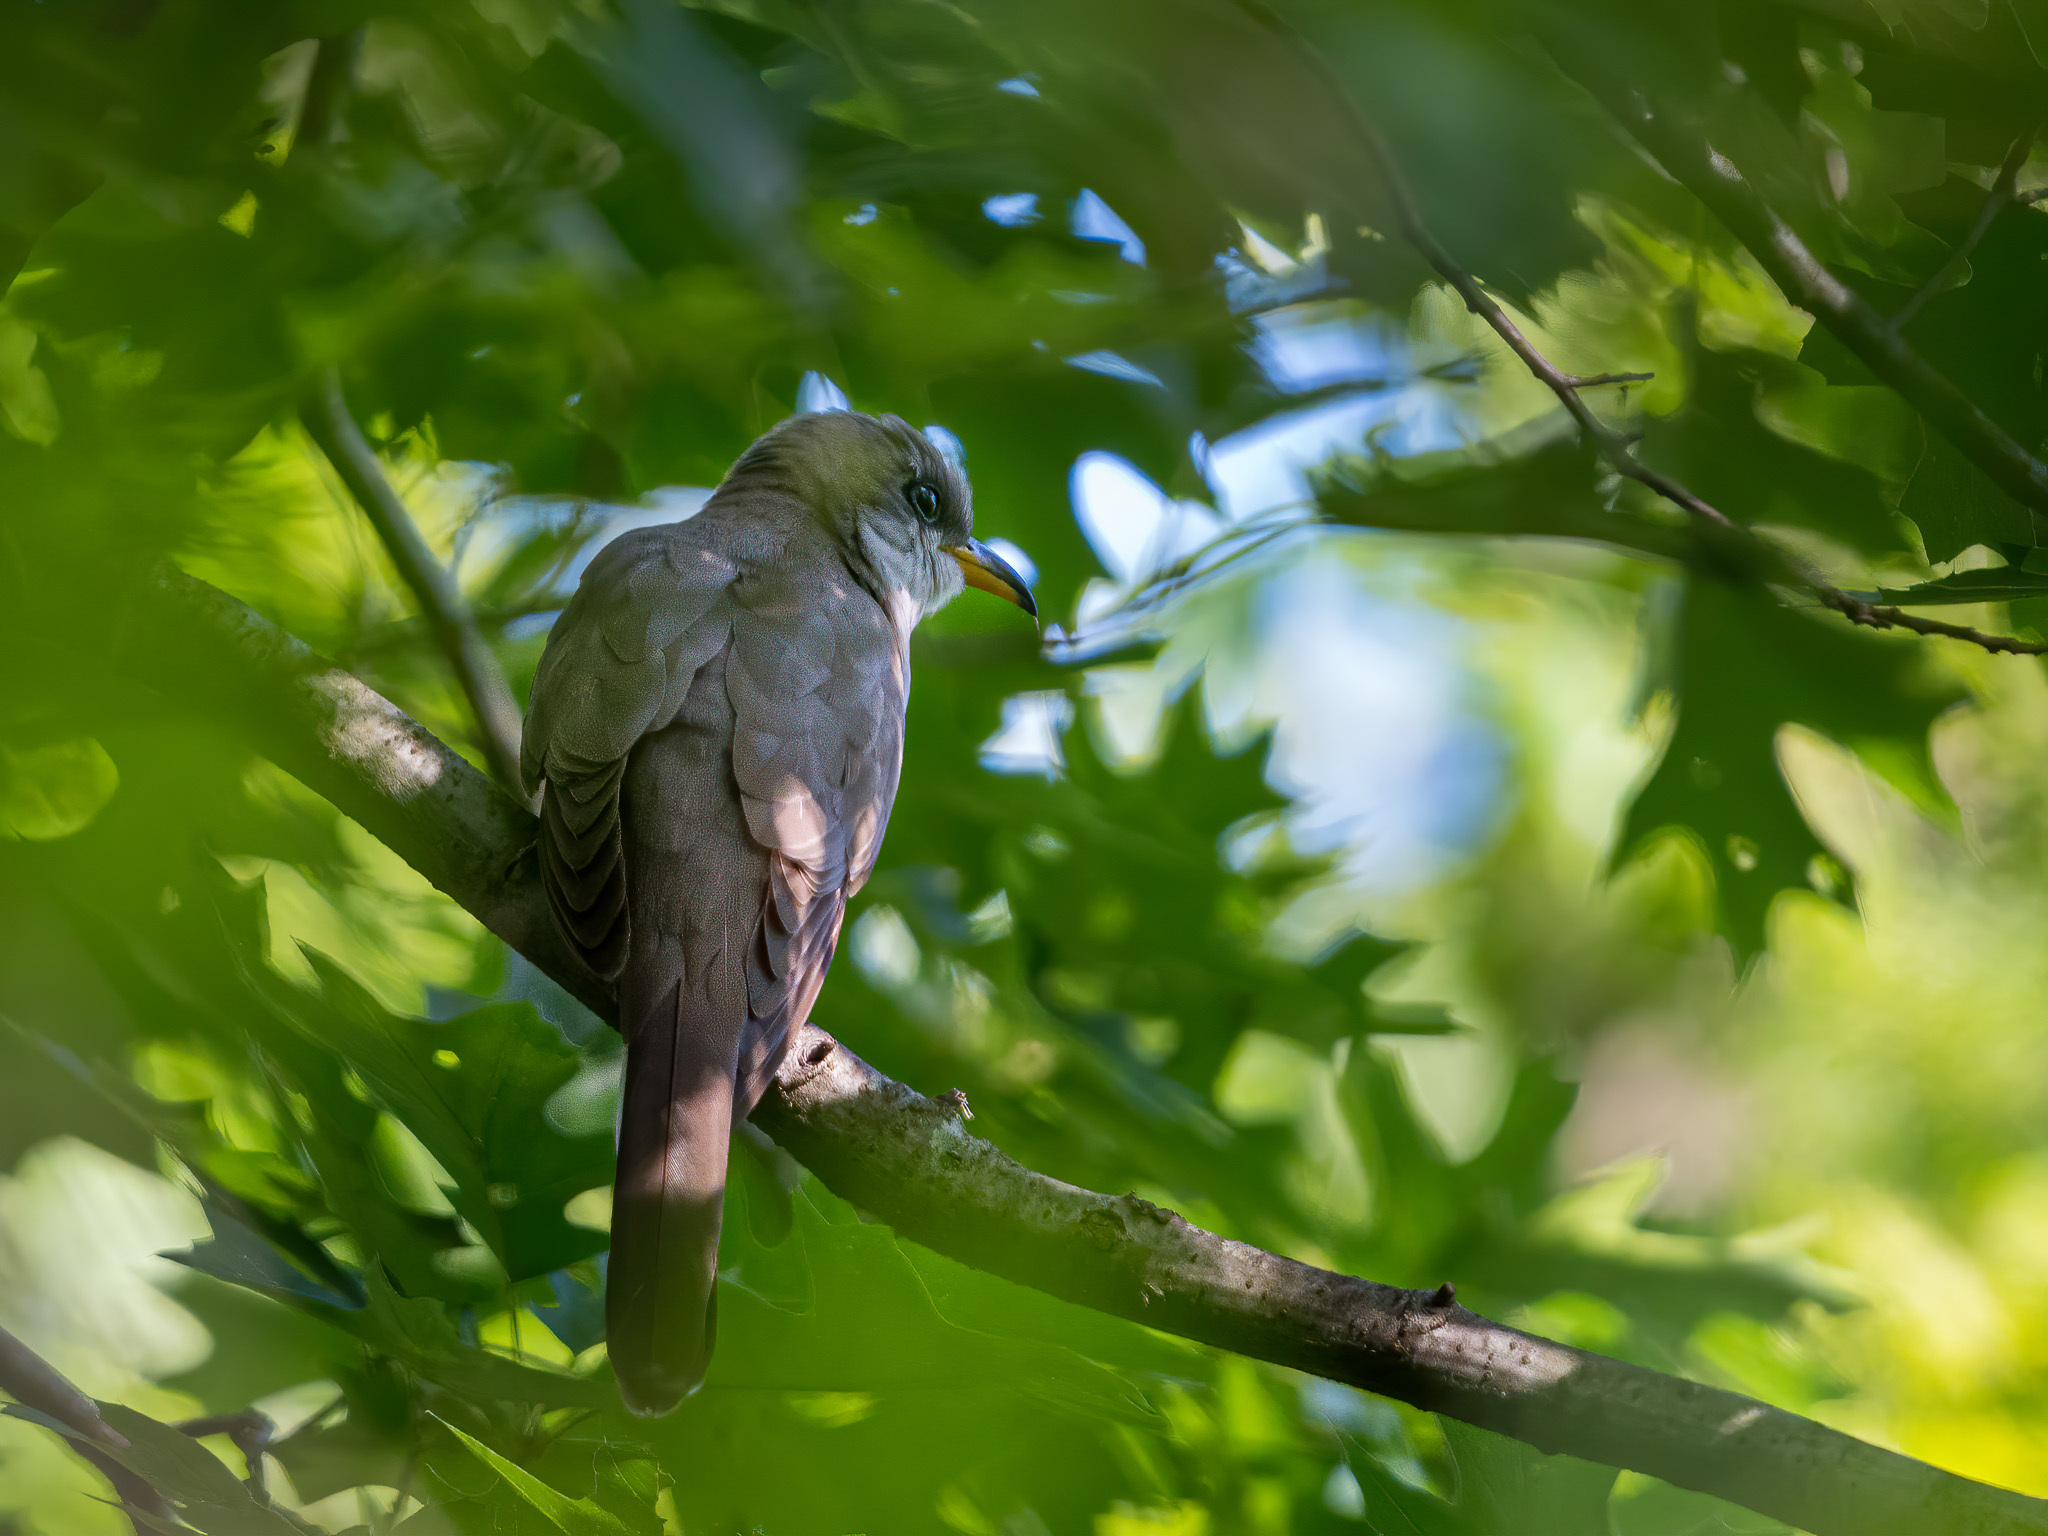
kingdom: Animalia
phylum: Chordata
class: Aves
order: Cuculiformes
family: Cuculidae
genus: Coccyzus
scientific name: Coccyzus americanus
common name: Yellow-billed cuckoo
